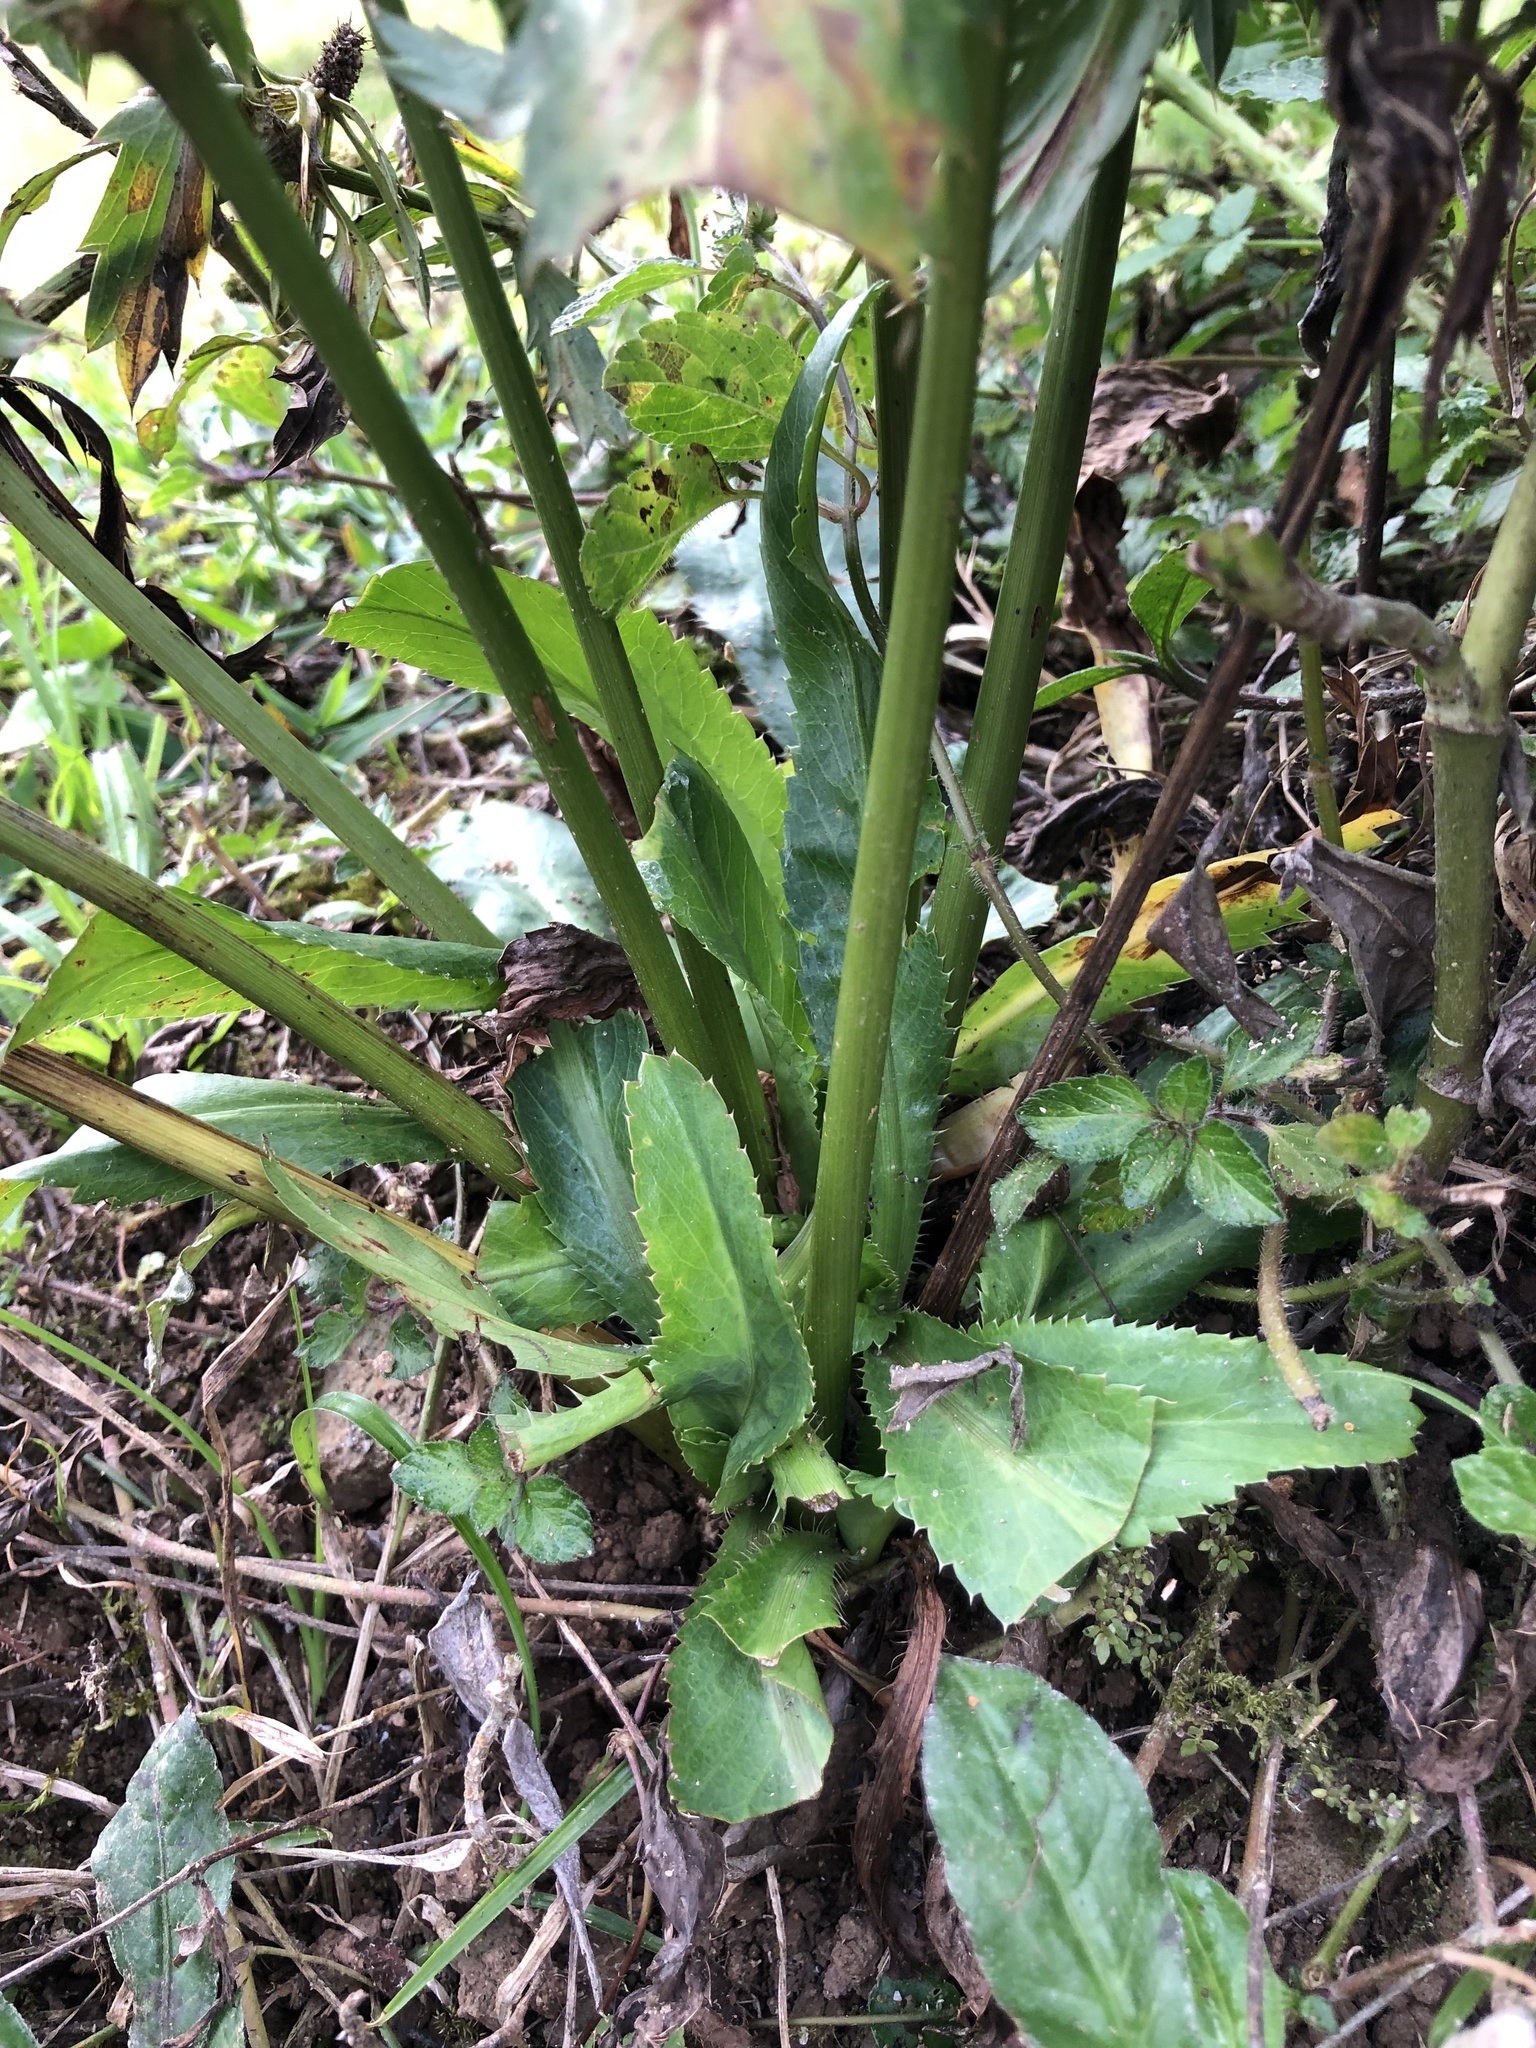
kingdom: Plantae
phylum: Tracheophyta
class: Magnoliopsida
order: Apiales
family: Apiaceae
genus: Eryngium
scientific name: Eryngium foetidum
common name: Fitweed
